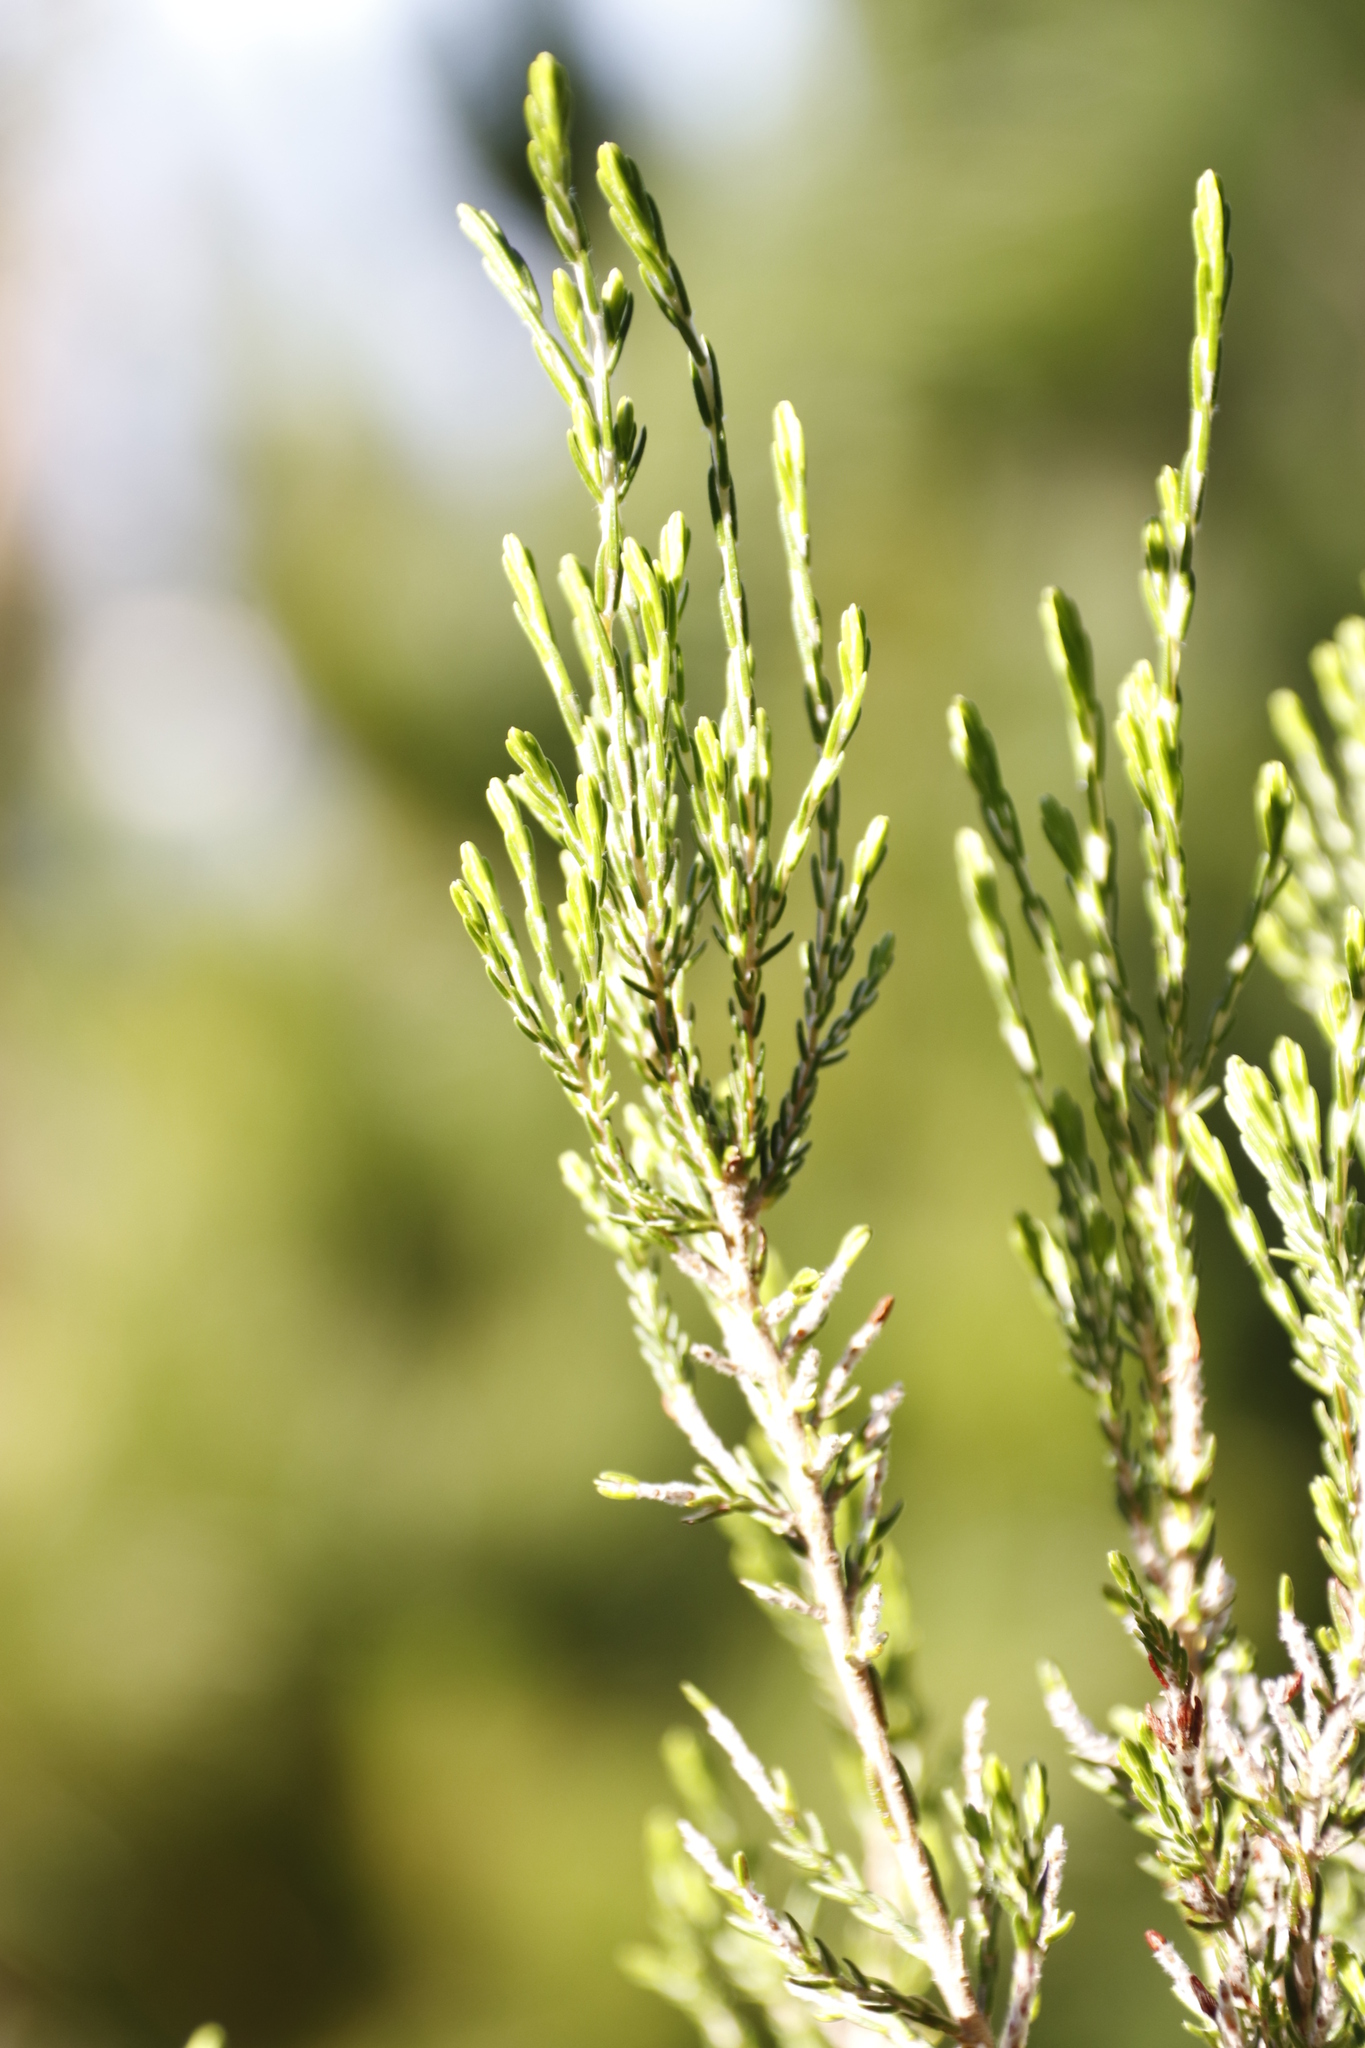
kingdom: Plantae
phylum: Tracheophyta
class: Magnoliopsida
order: Malvales
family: Thymelaeaceae
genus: Passerina
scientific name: Passerina corymbosa
